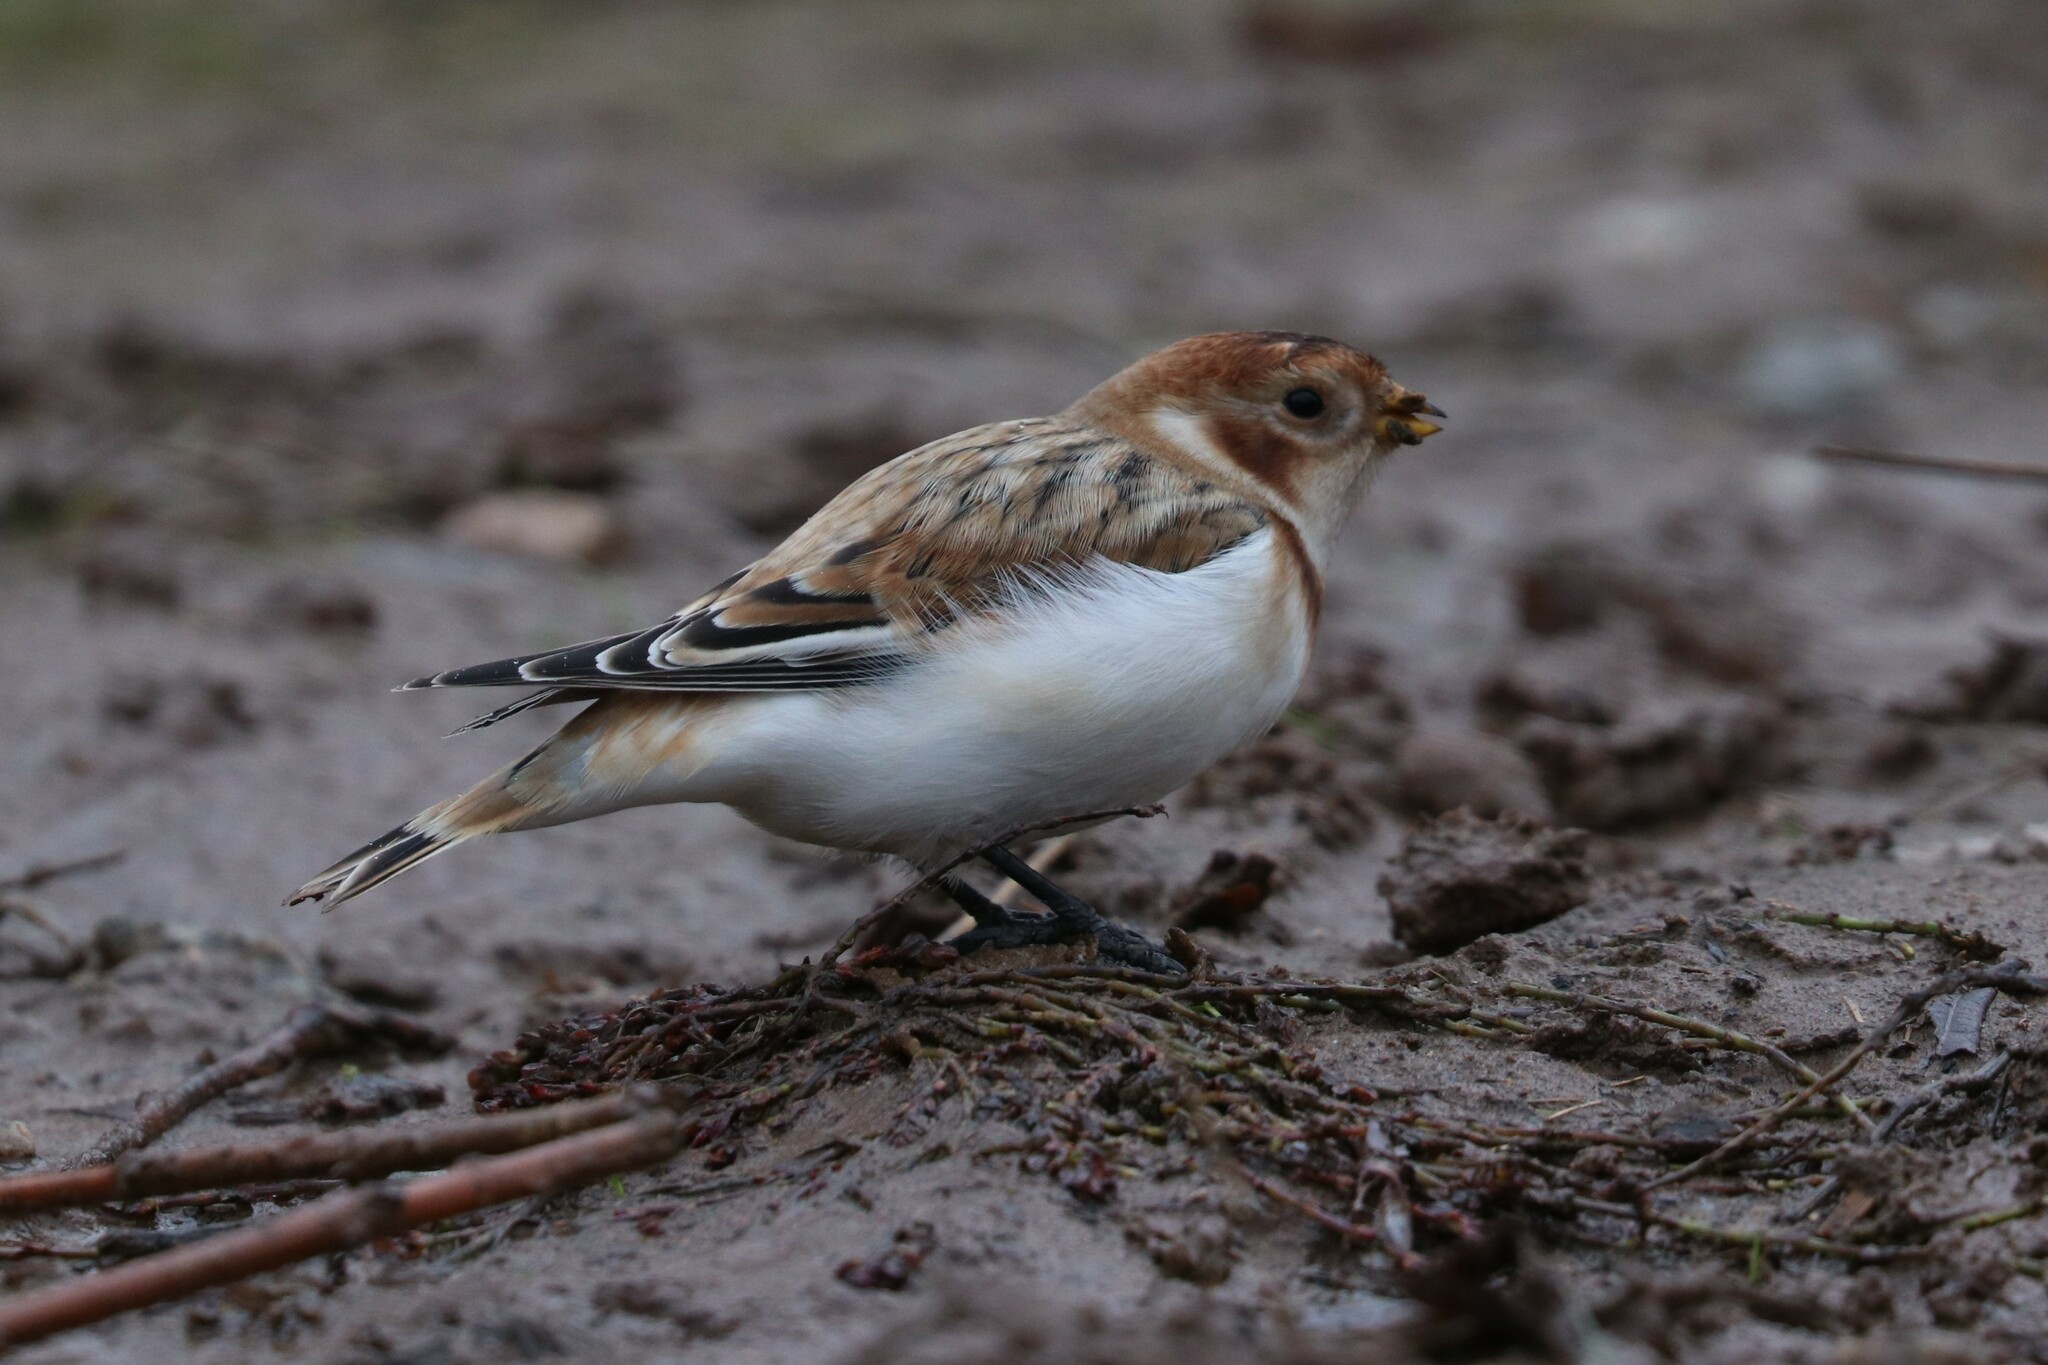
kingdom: Animalia
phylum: Chordata
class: Aves
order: Passeriformes
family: Calcariidae
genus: Plectrophenax
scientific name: Plectrophenax nivalis
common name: Snow bunting
